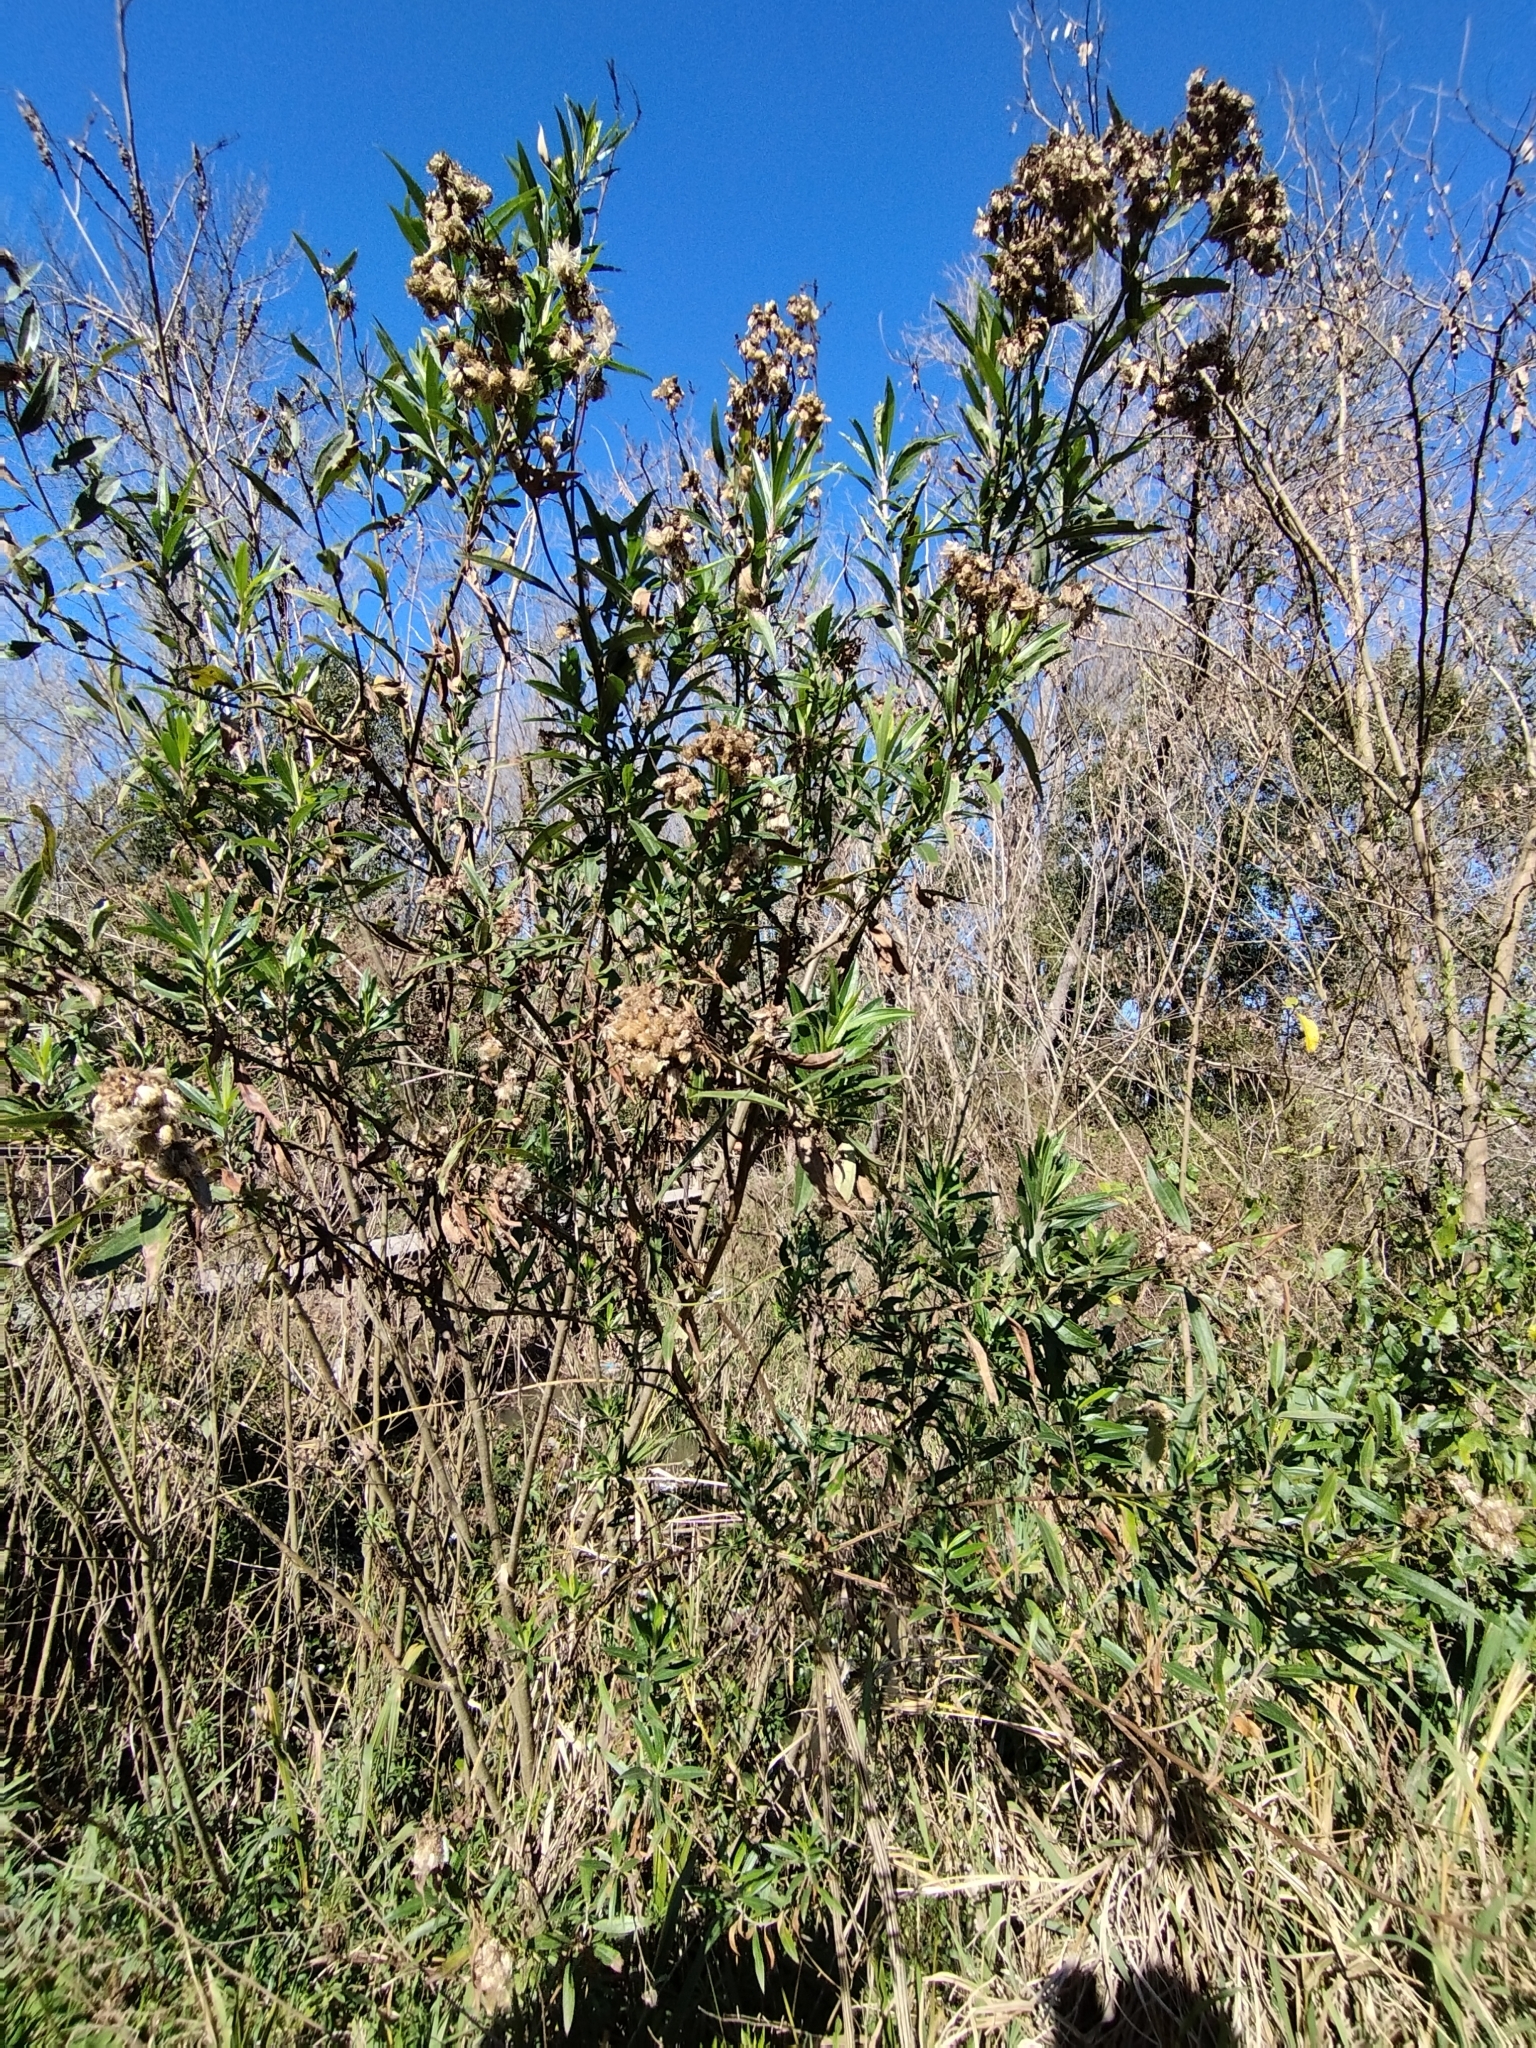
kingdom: Plantae
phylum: Tracheophyta
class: Magnoliopsida
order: Asterales
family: Asteraceae
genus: Baccharis
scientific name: Baccharis punctulata
